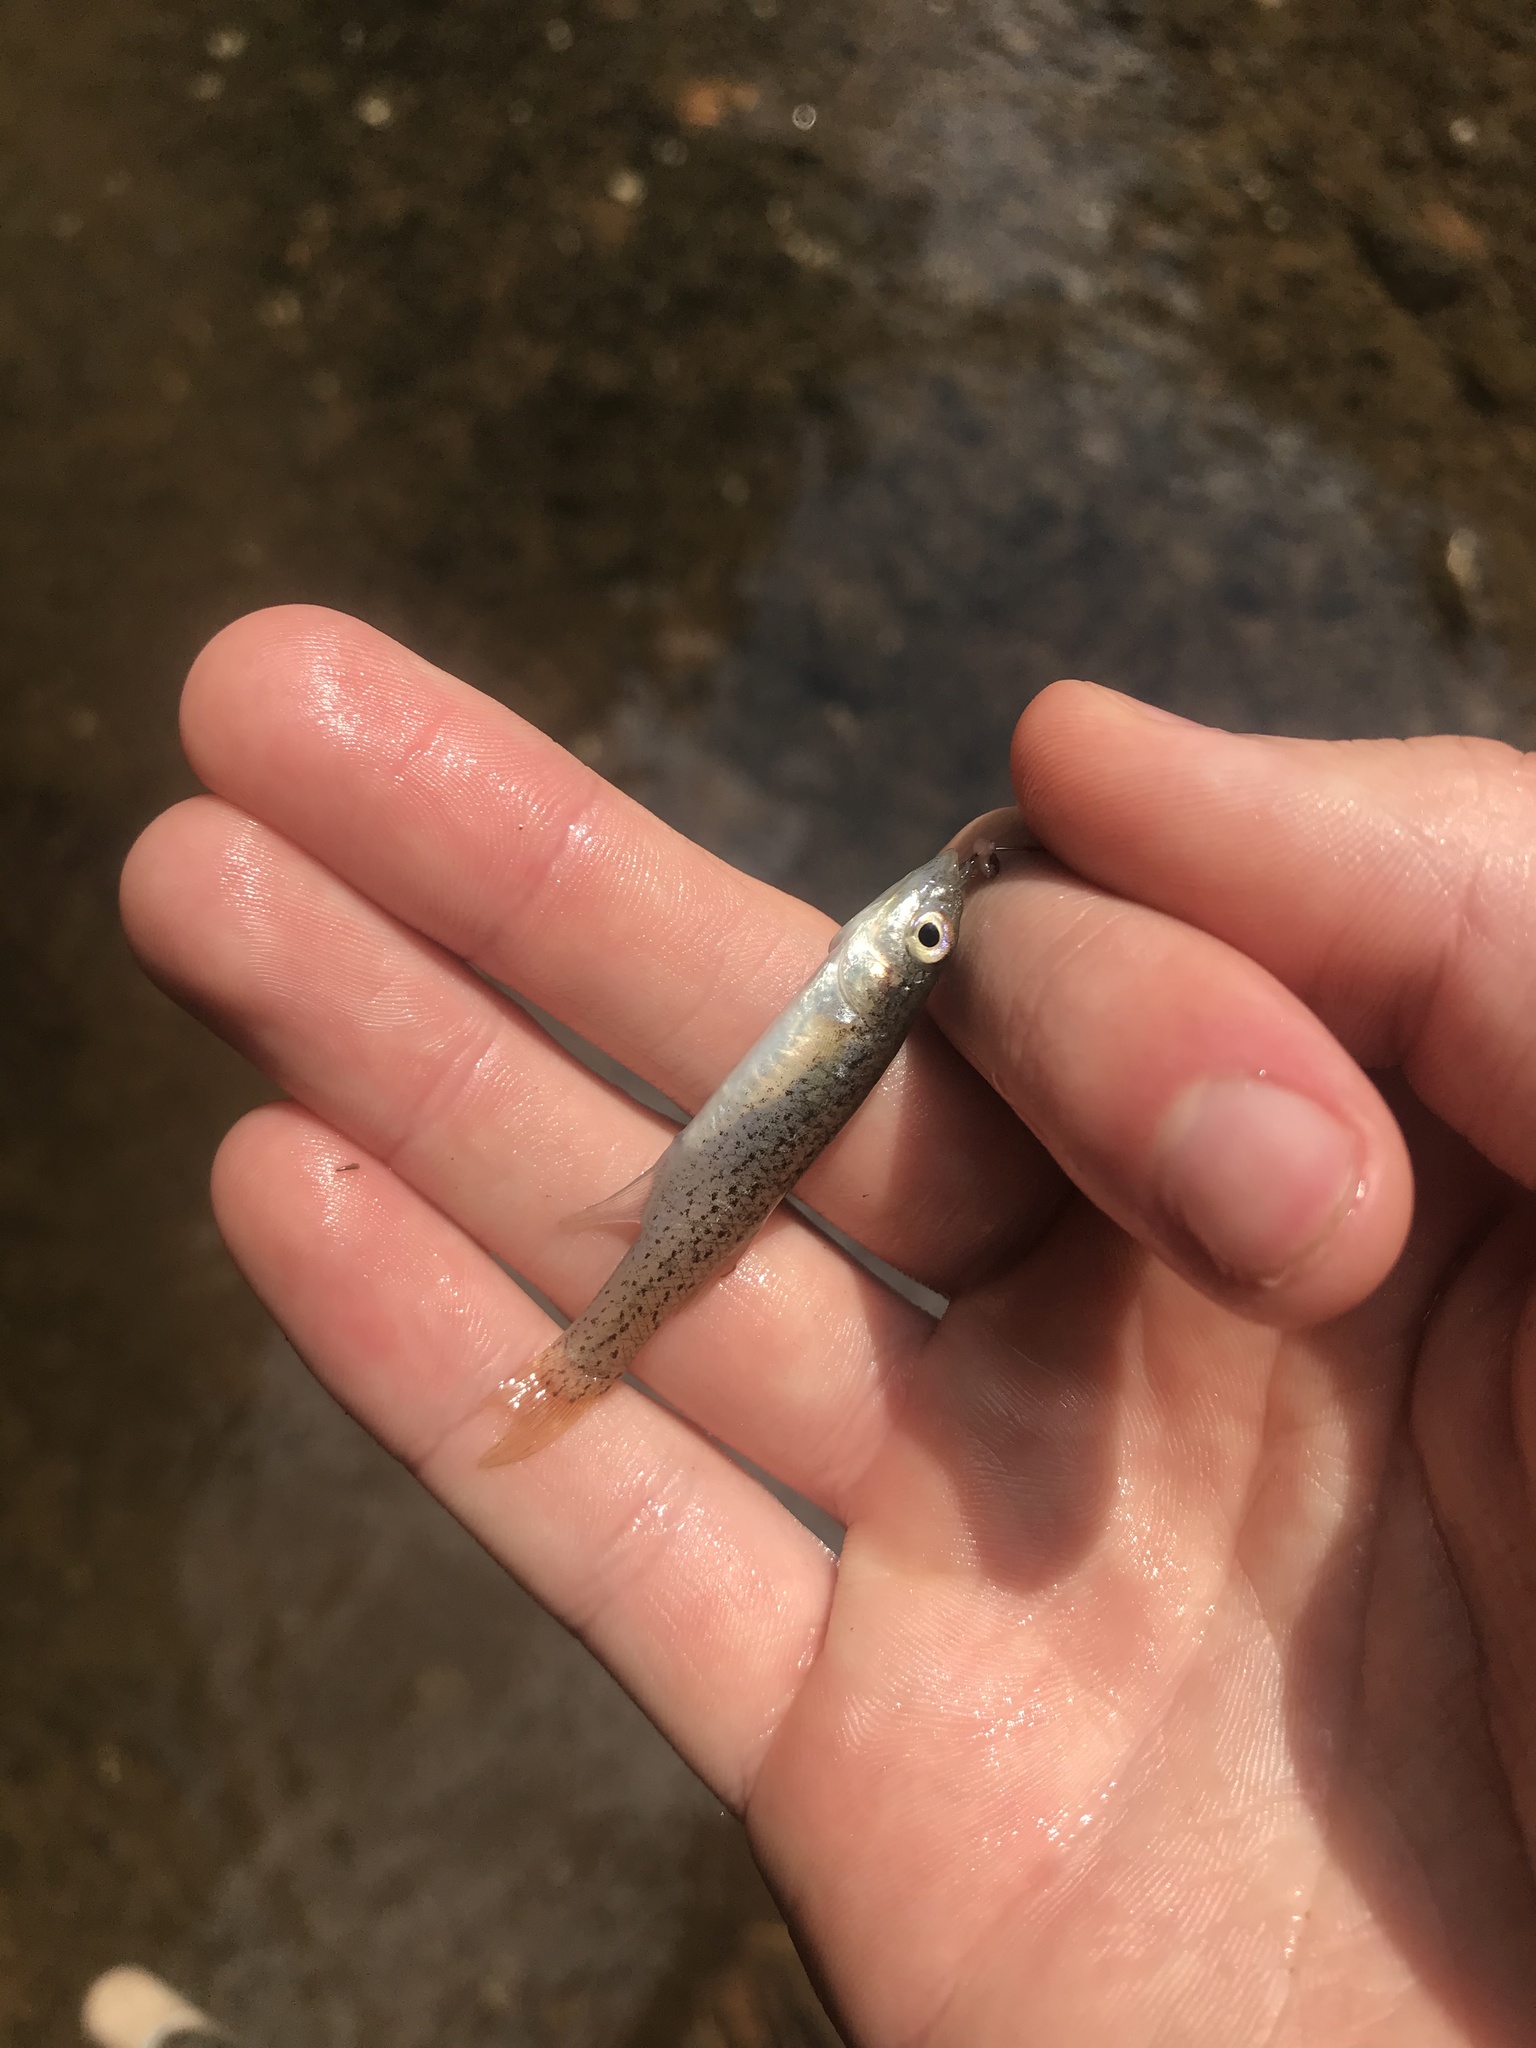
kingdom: Animalia
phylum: Chordata
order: Cyprinodontiformes
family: Fundulidae
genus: Fundulus
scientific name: Fundulus rathbuni
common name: Speckled killifish
